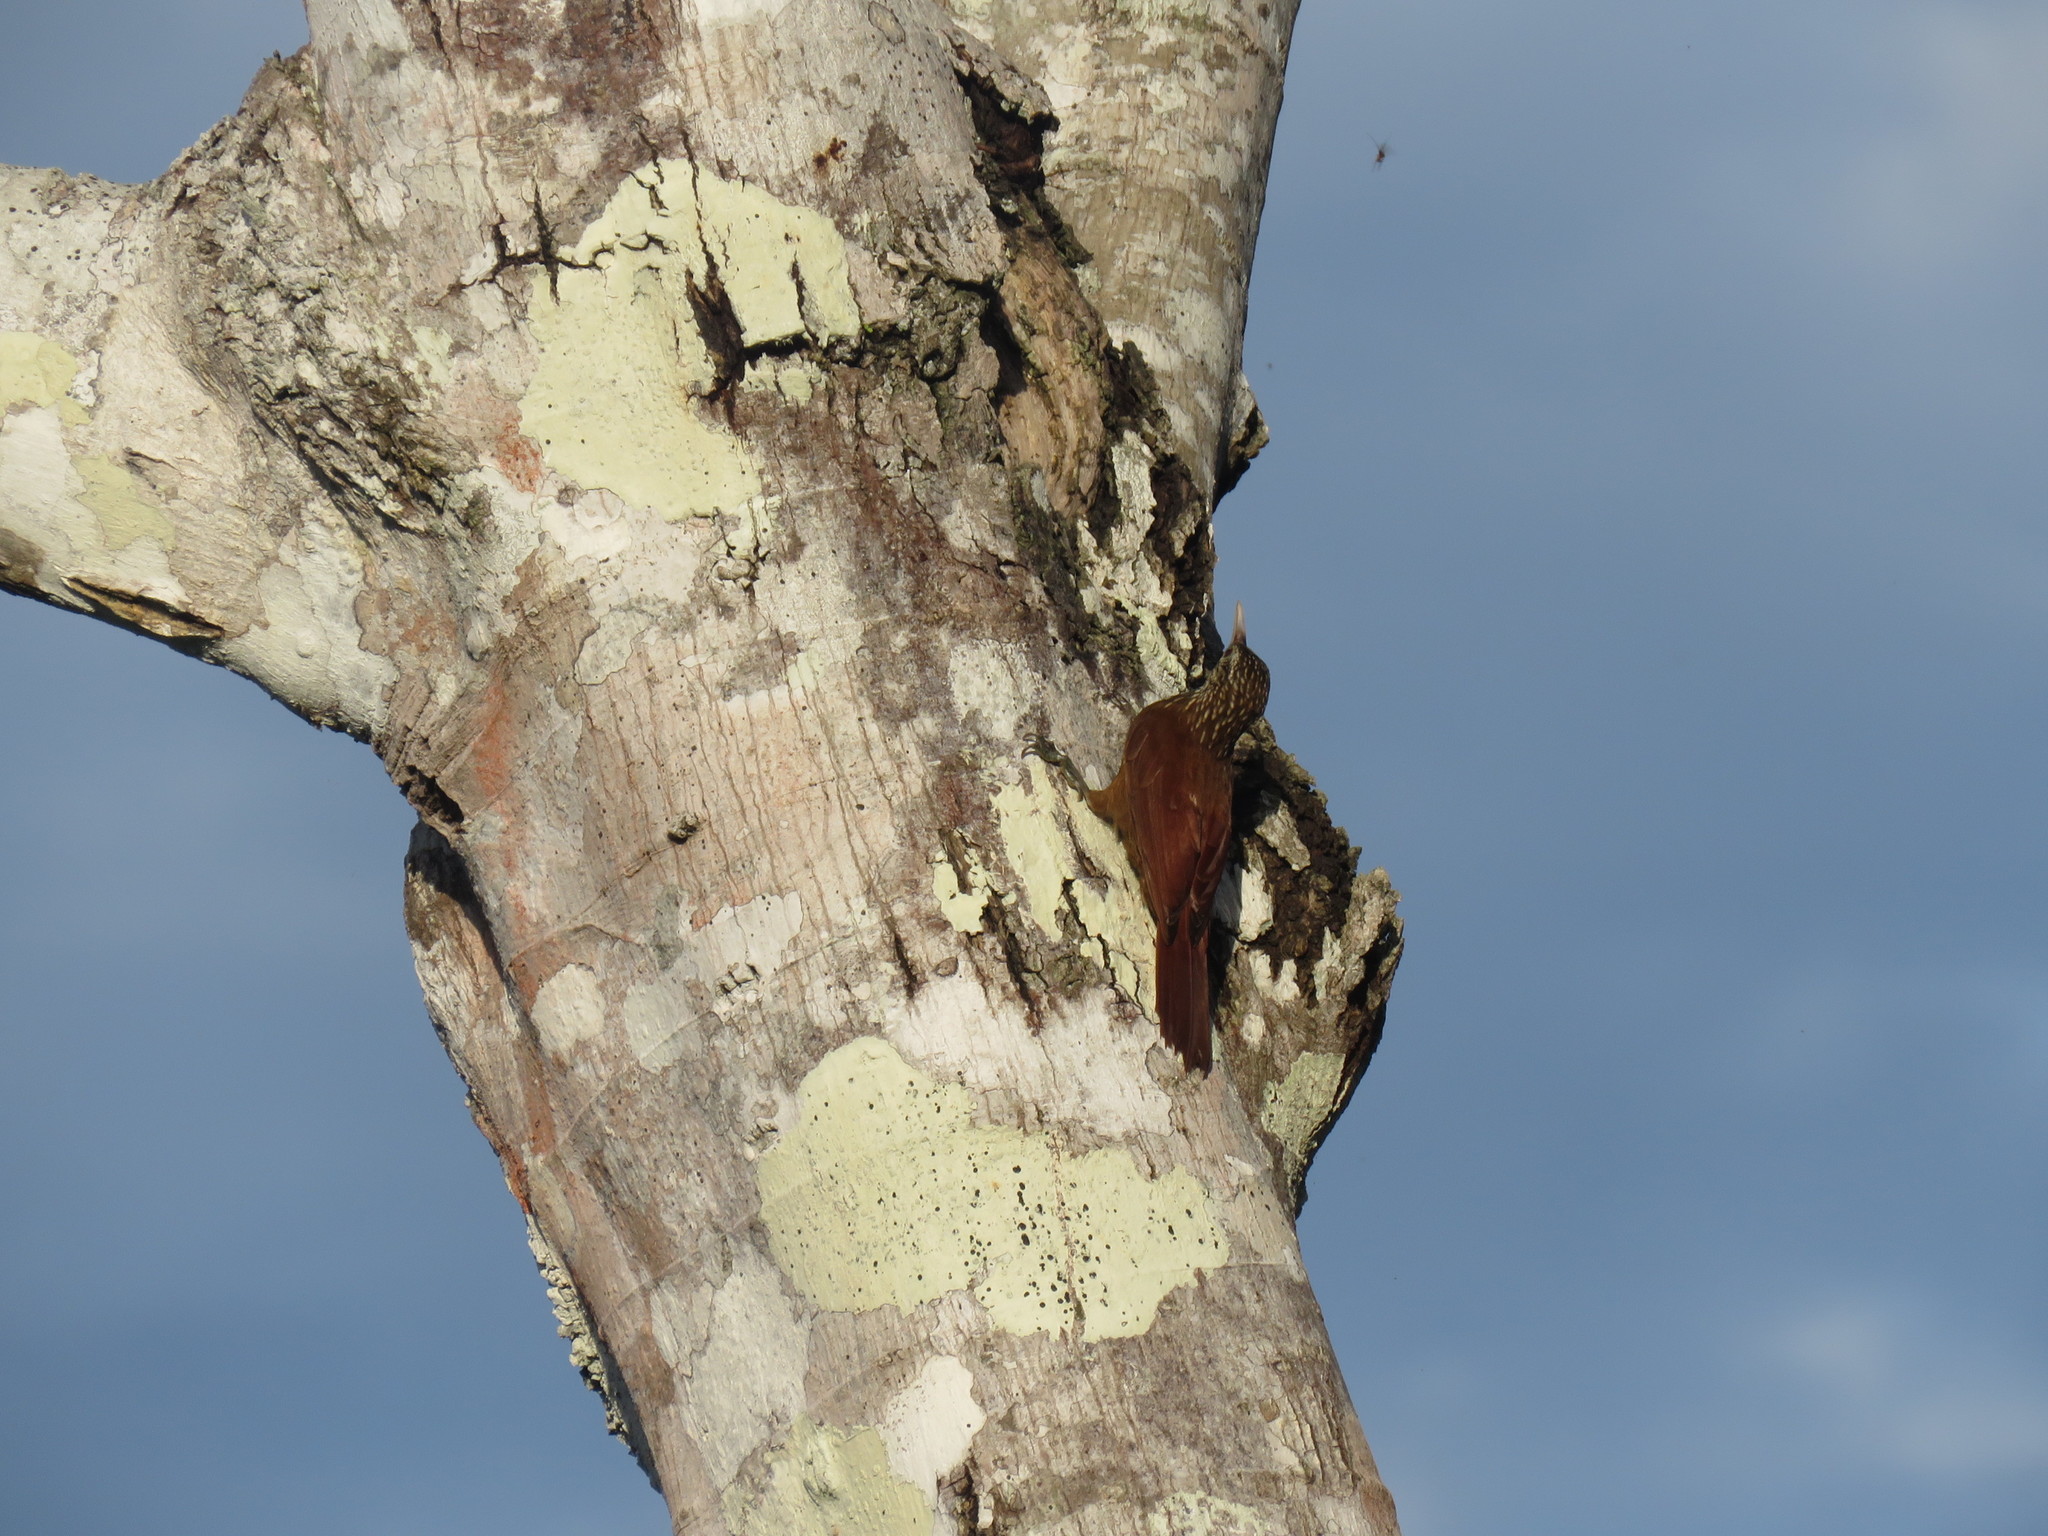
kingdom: Animalia
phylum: Chordata
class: Aves
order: Passeriformes
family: Furnariidae
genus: Xiphorhynchus
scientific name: Xiphorhynchus picus
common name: Straight-billed woodcreeper
